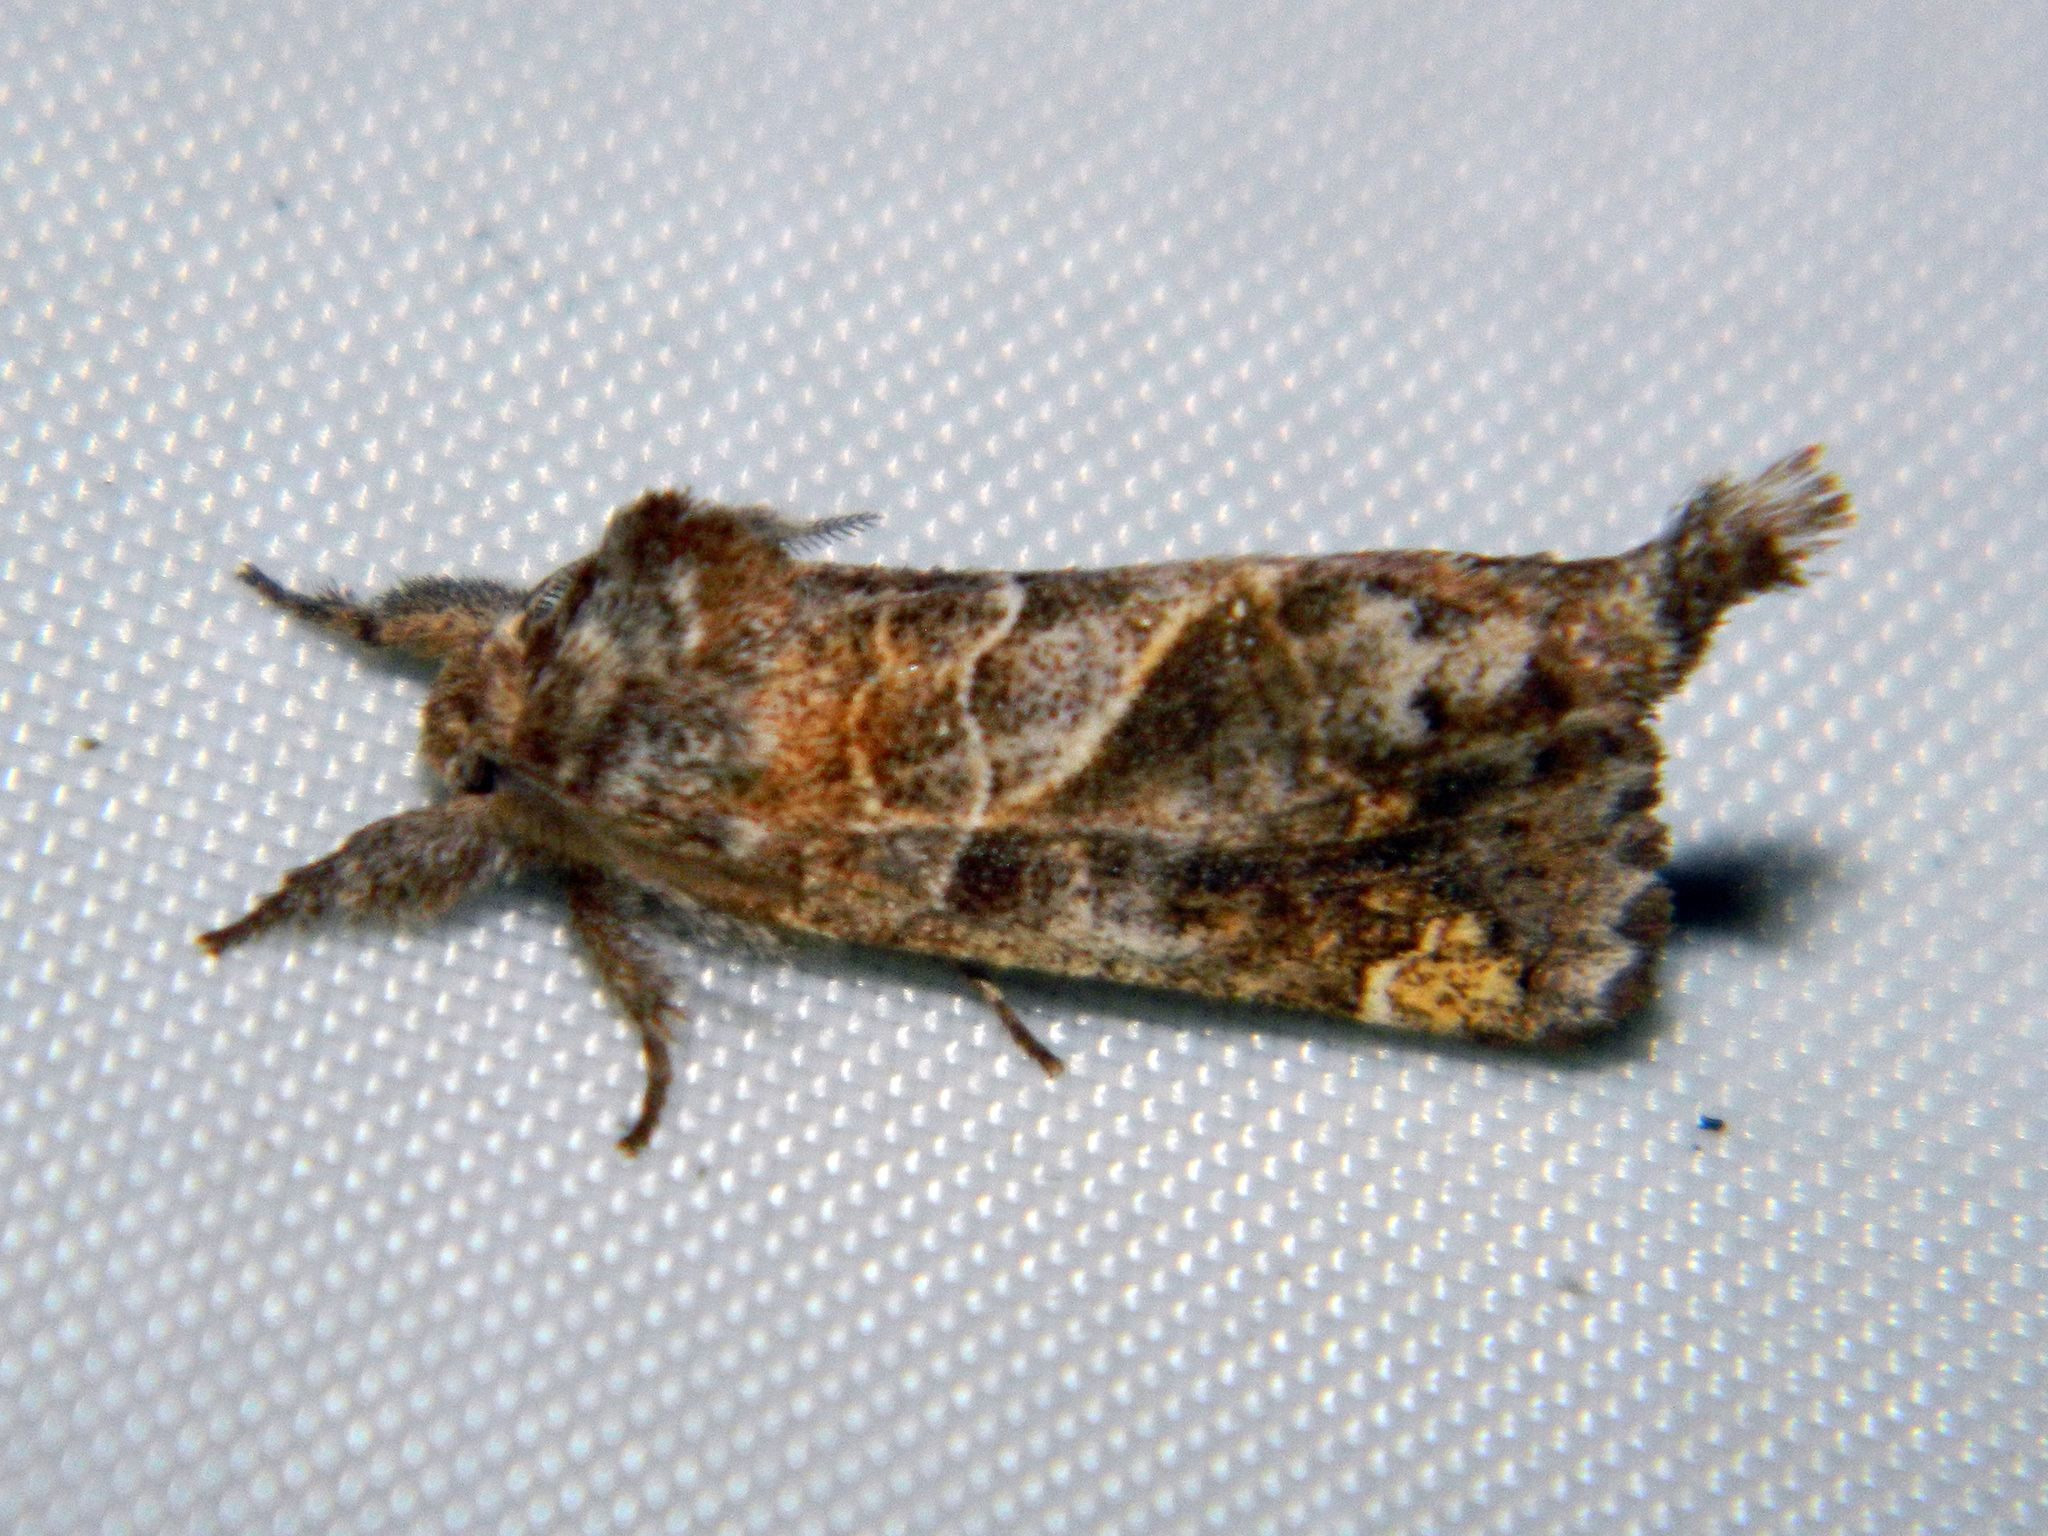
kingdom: Animalia
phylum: Arthropoda
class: Insecta
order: Lepidoptera
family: Notodontidae
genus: Clostera
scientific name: Clostera strigosa
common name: Striped chocolate-tip moth
